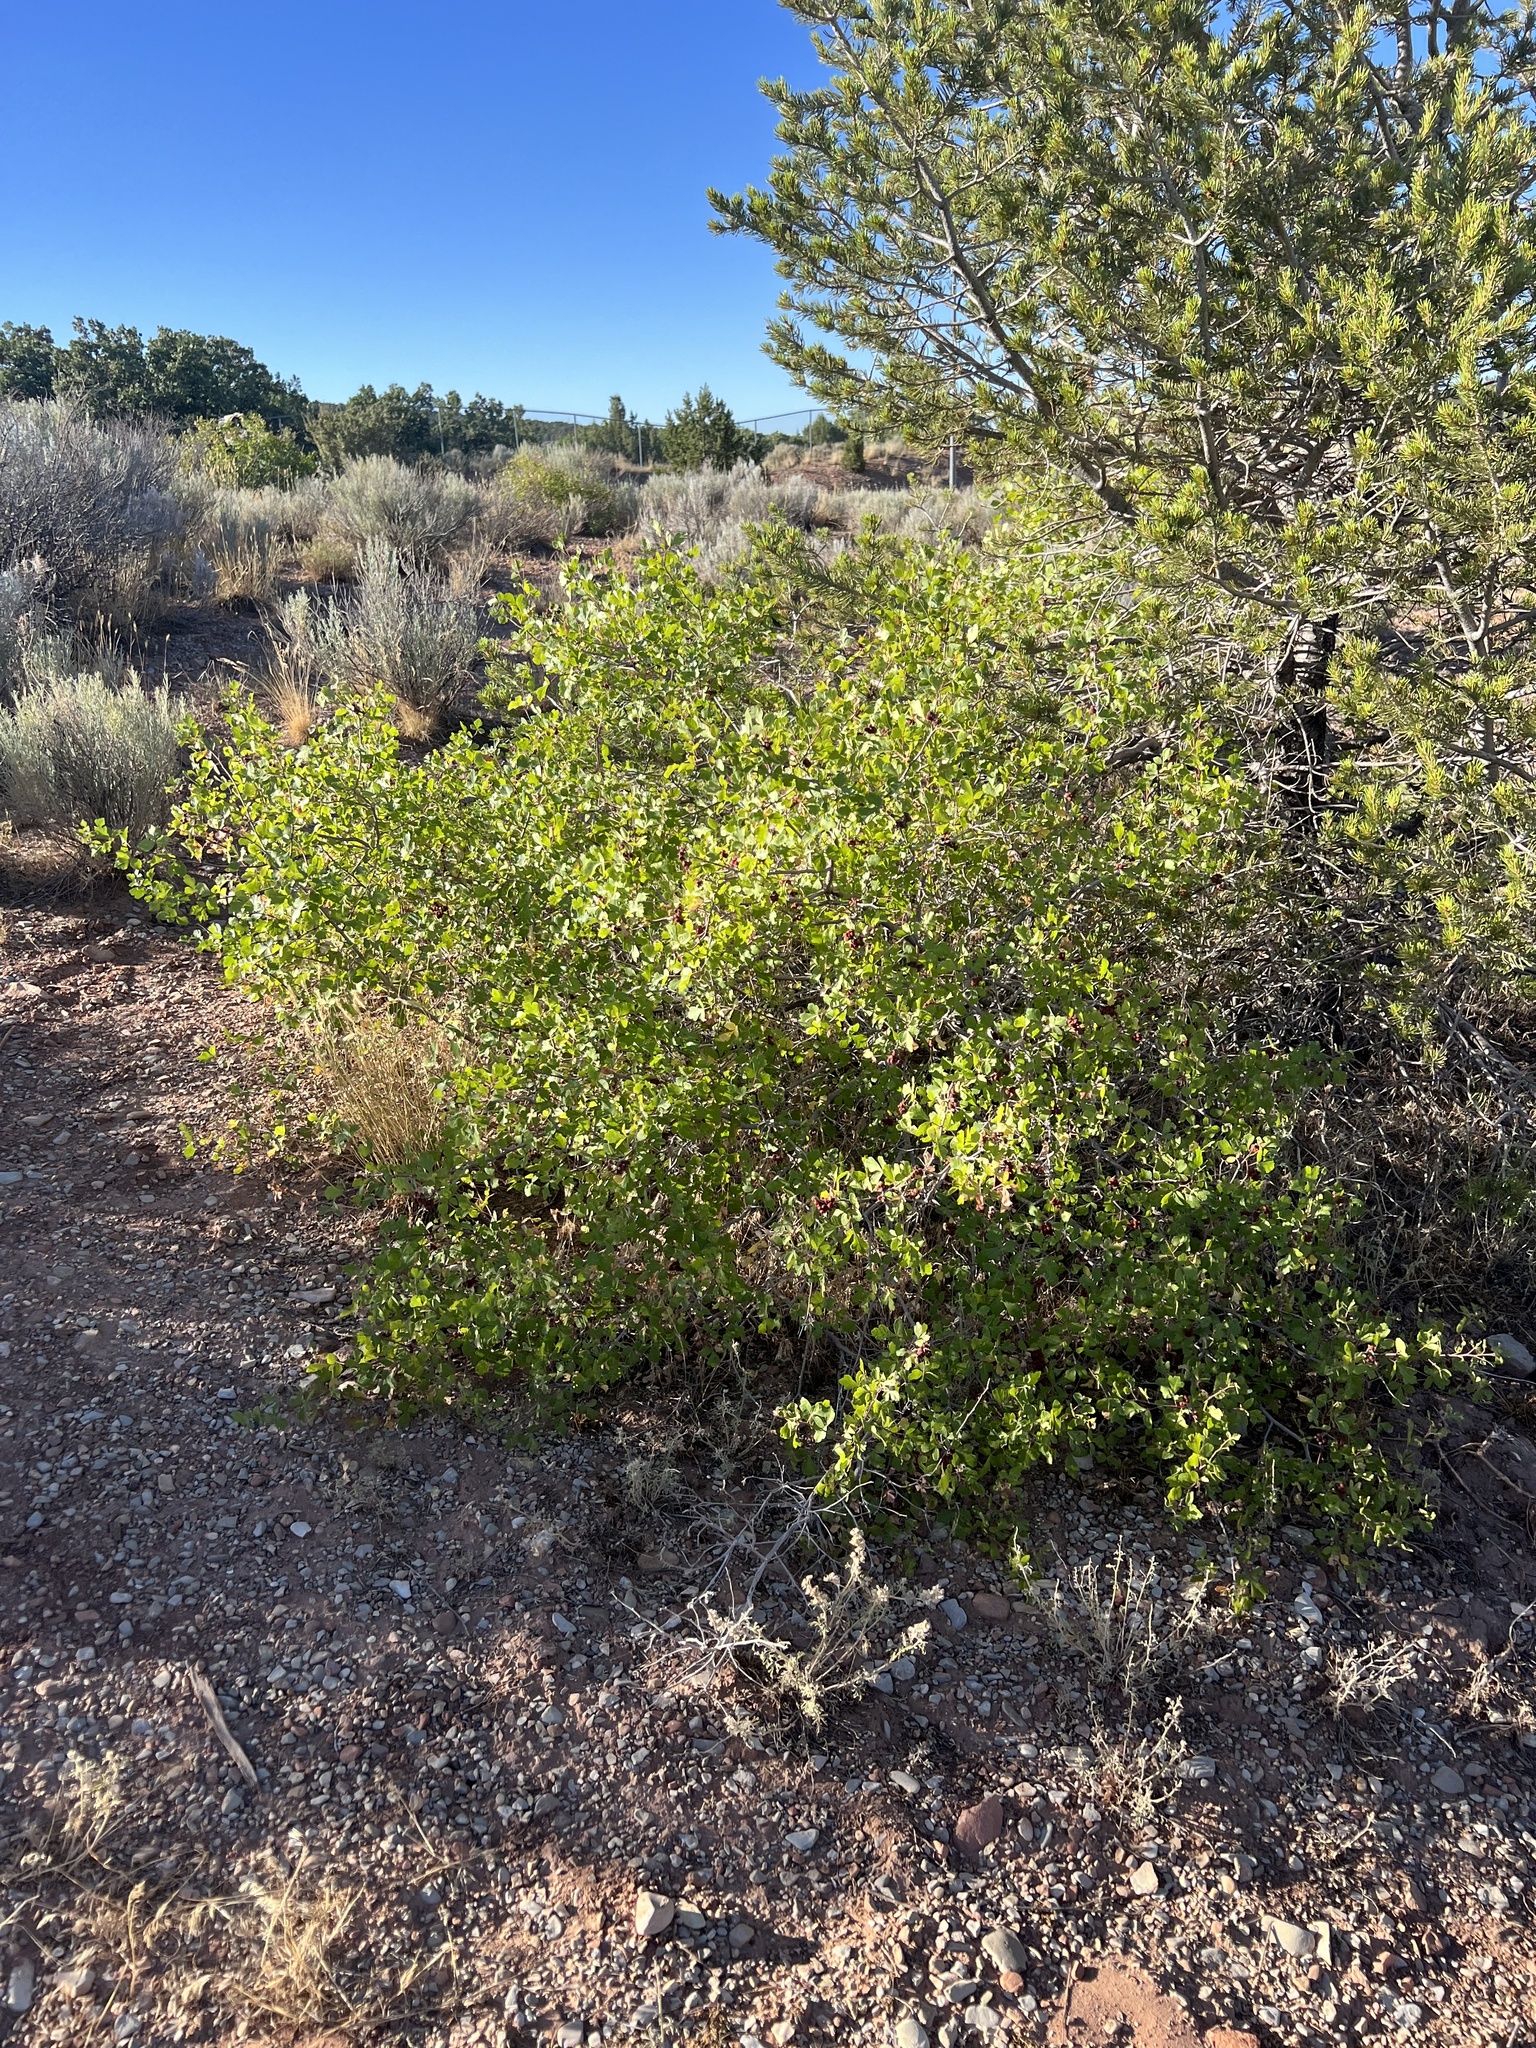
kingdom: Plantae
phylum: Tracheophyta
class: Magnoliopsida
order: Sapindales
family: Anacardiaceae
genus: Rhus
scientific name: Rhus trilobata
